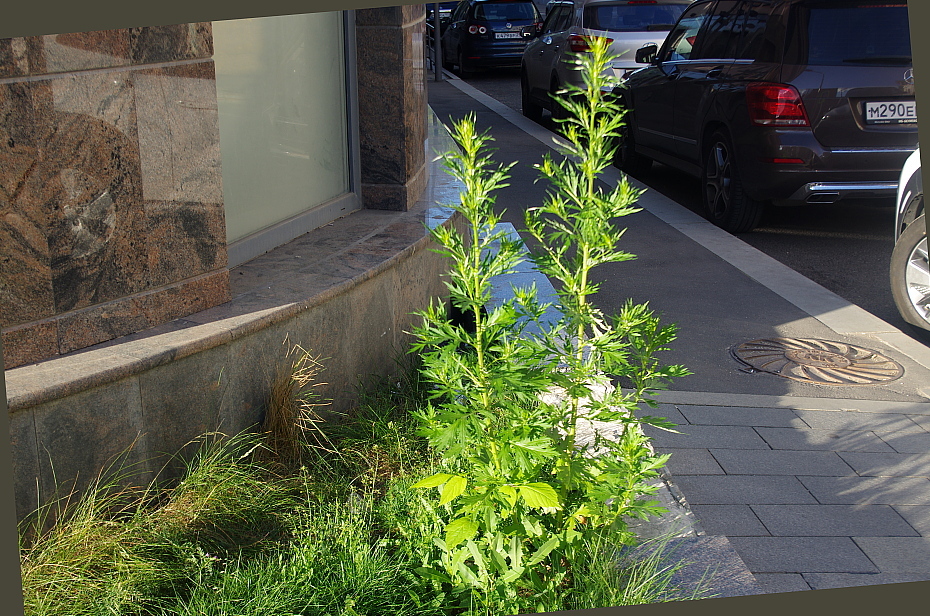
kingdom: Plantae
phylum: Tracheophyta
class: Magnoliopsida
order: Asterales
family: Asteraceae
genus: Artemisia
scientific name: Artemisia vulgaris
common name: Mugwort
